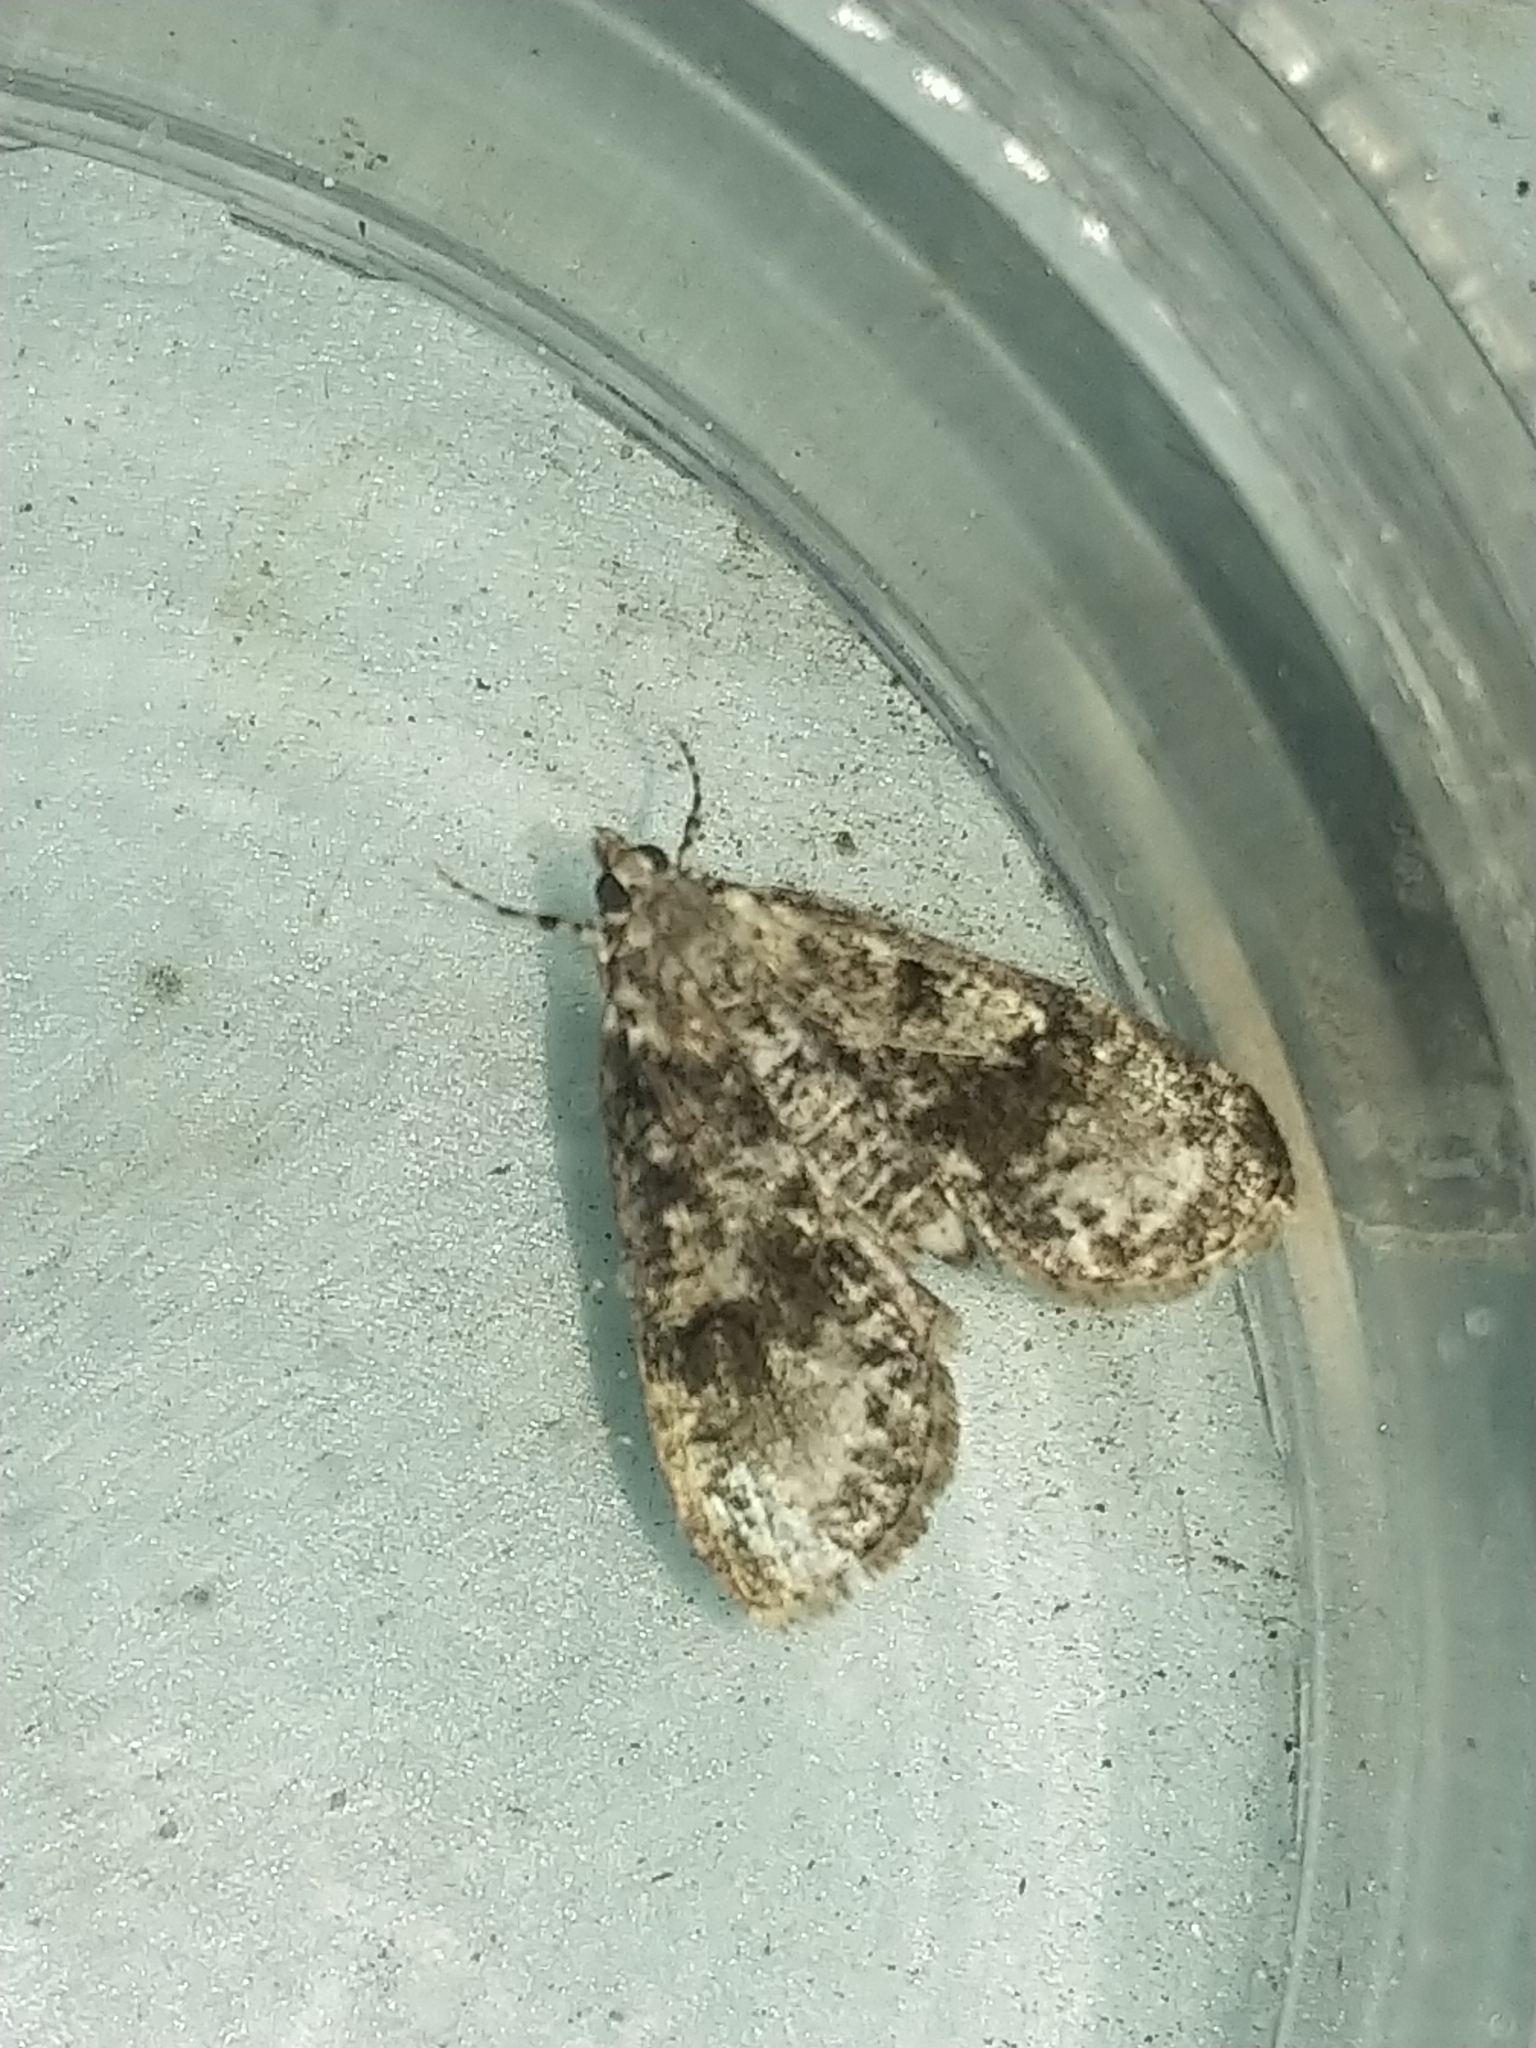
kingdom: Animalia
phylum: Arthropoda
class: Insecta
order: Lepidoptera
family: Crambidae
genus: Palpita
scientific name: Palpita magniferalis
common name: Splendid palpita moth
